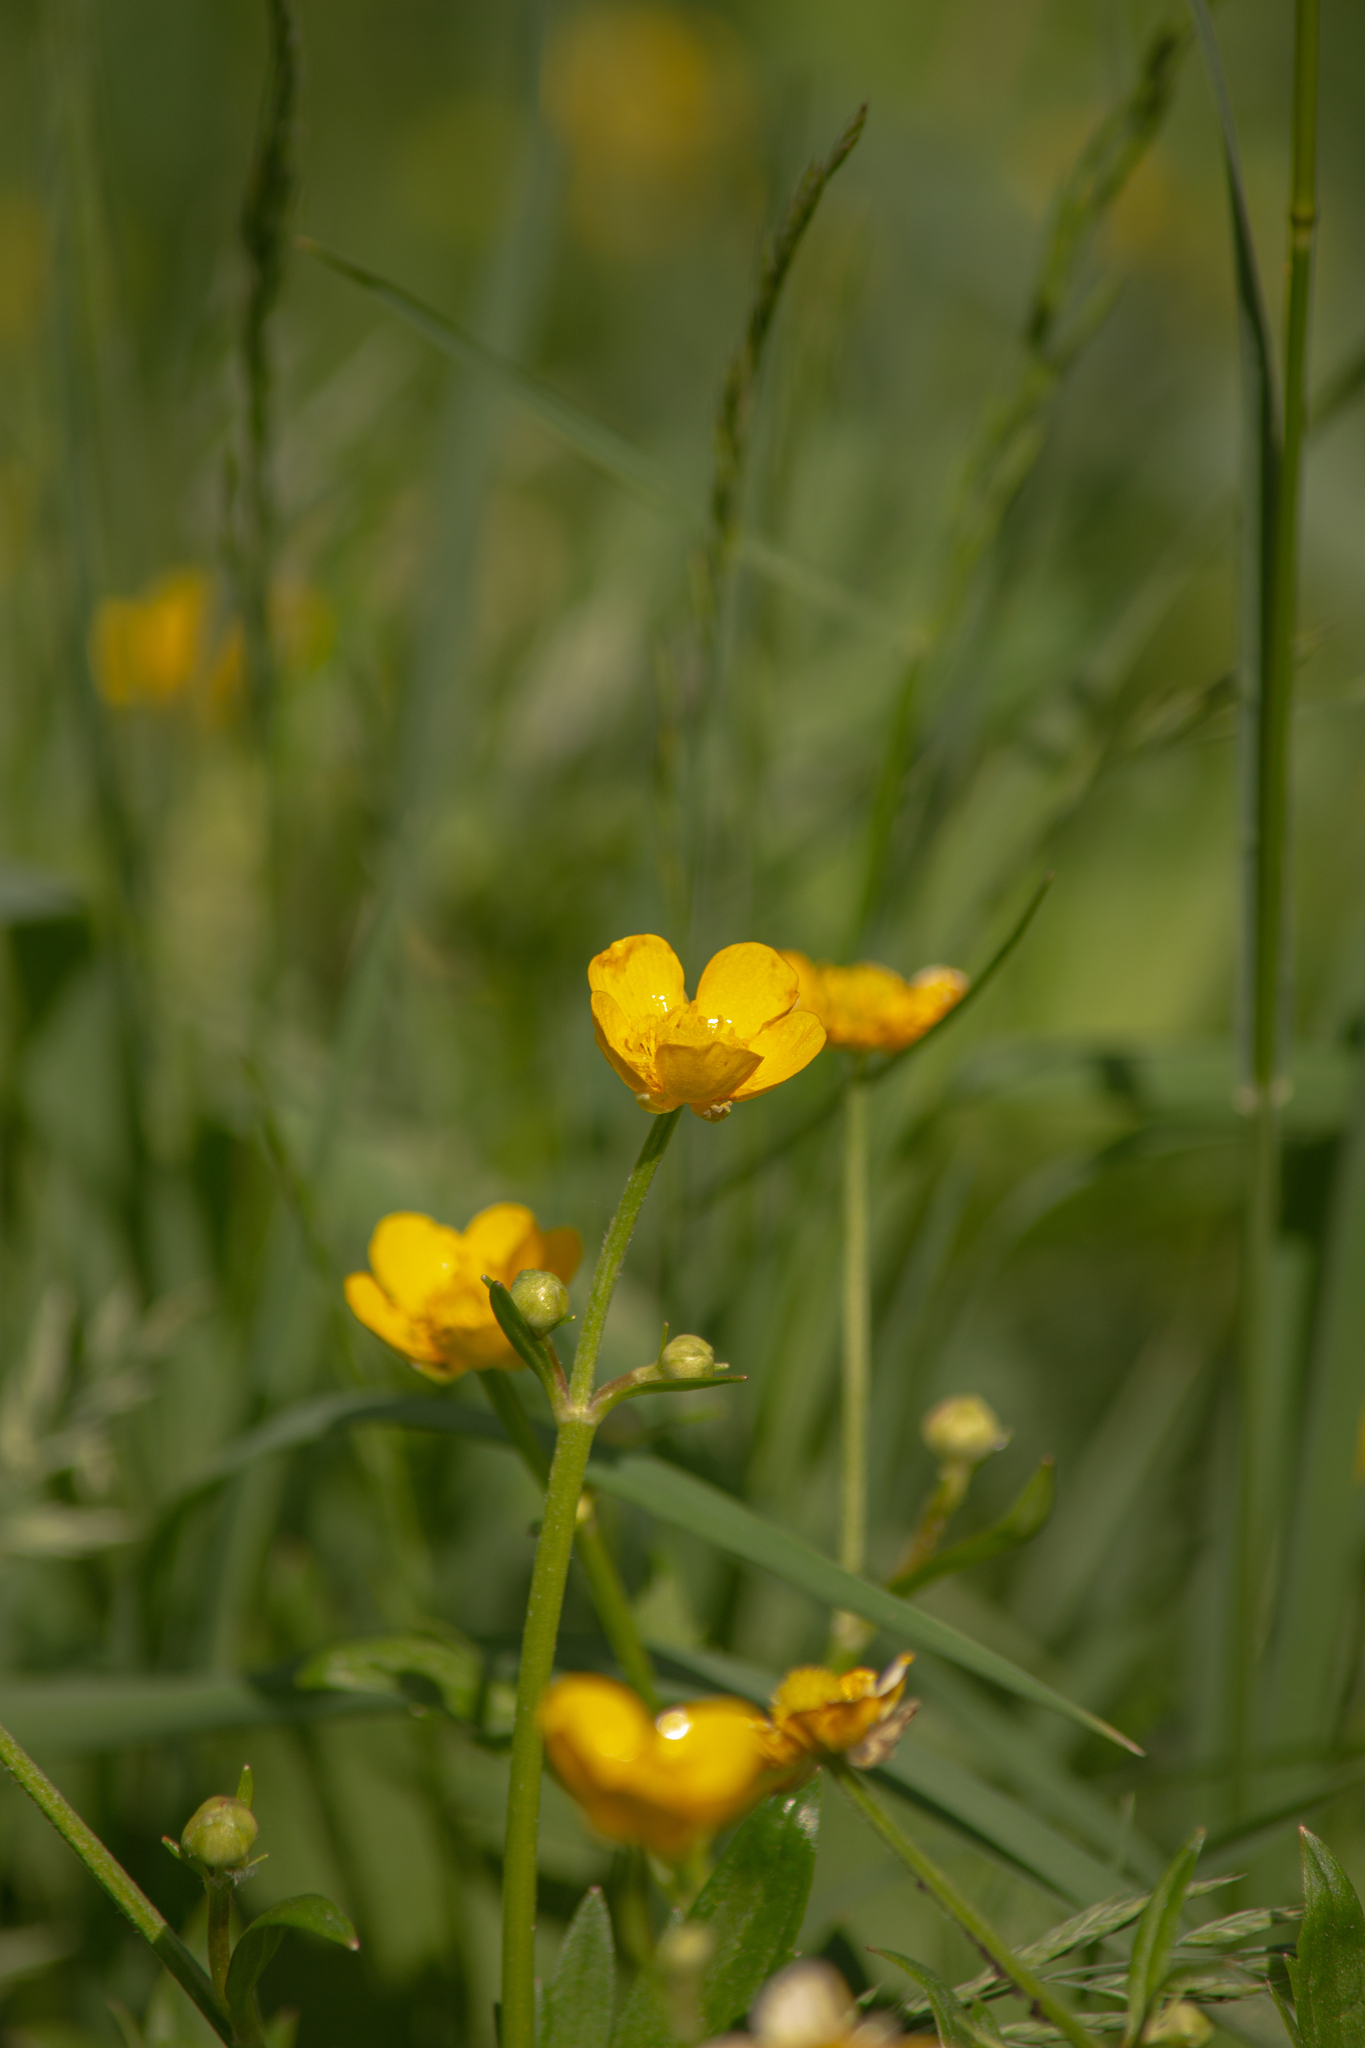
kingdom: Plantae
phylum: Tracheophyta
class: Magnoliopsida
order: Ranunculales
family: Ranunculaceae
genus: Ranunculus
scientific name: Ranunculus repens
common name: Creeping buttercup
